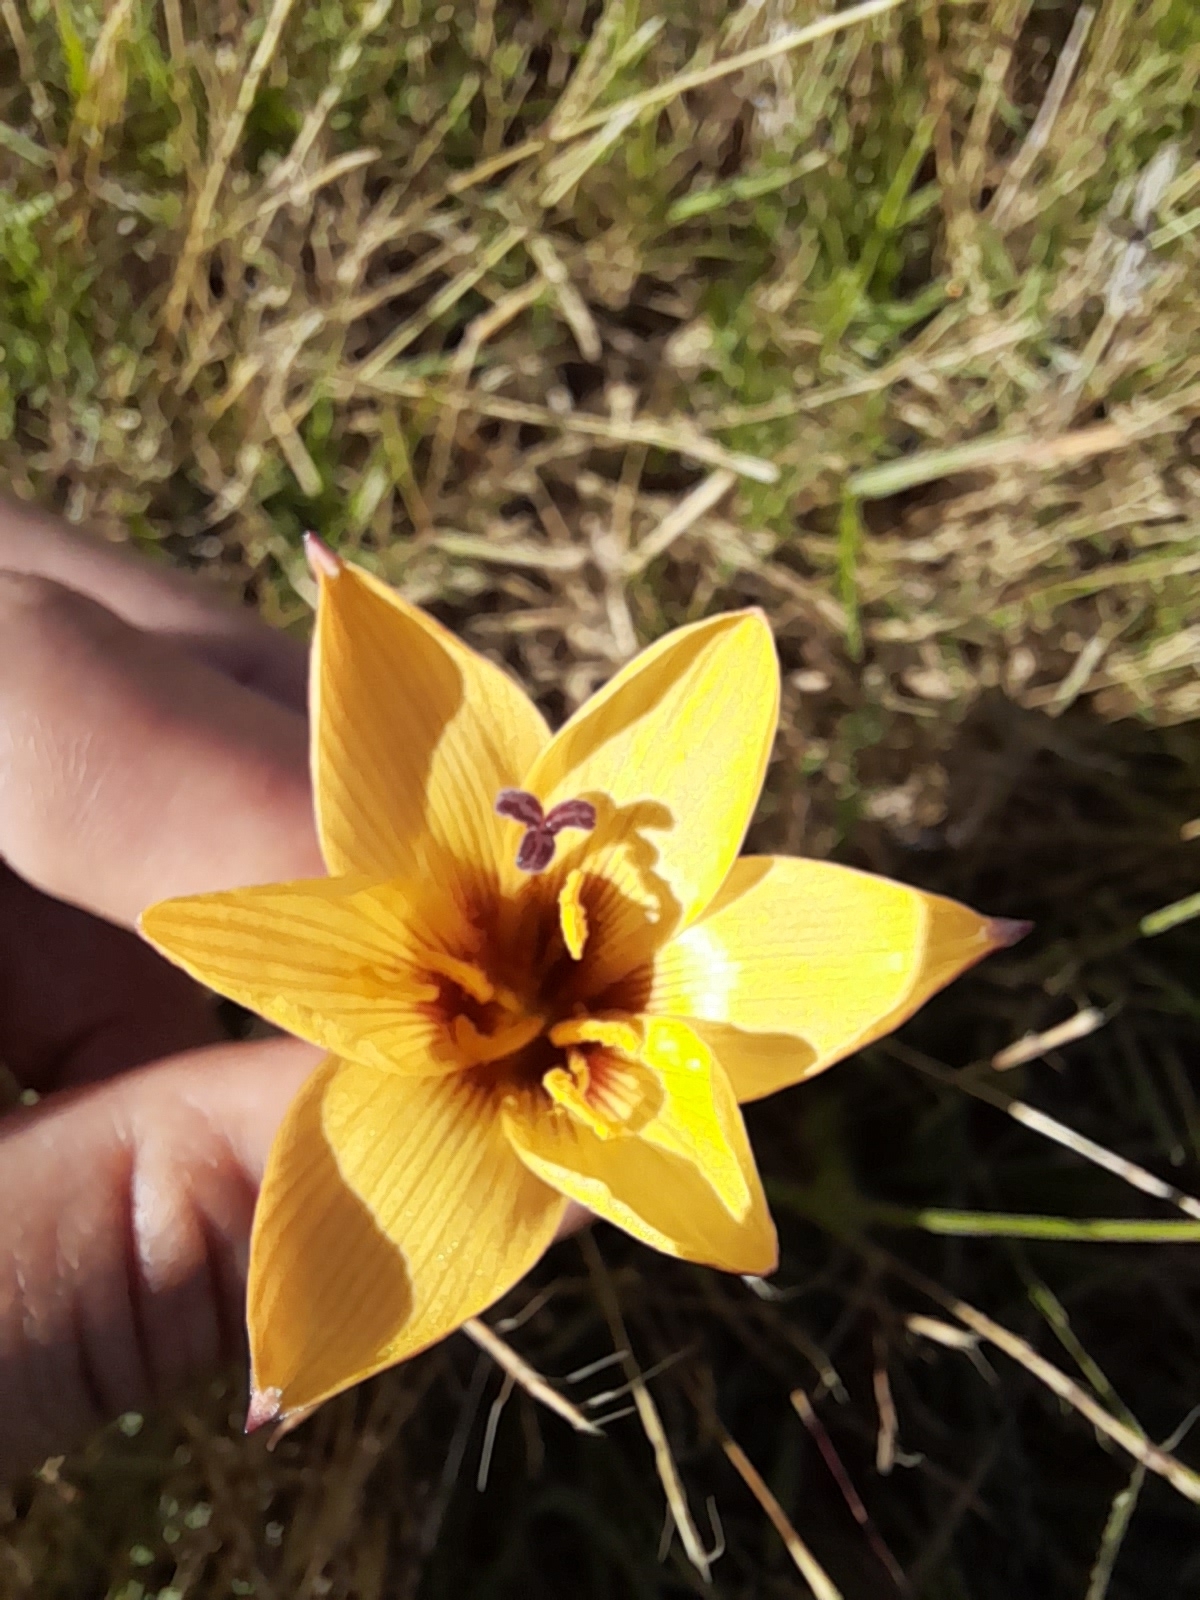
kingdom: Plantae
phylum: Tracheophyta
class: Liliopsida
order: Asparagales
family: Amaryllidaceae
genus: Zephyranthes
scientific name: Zephyranthes tubispatha
